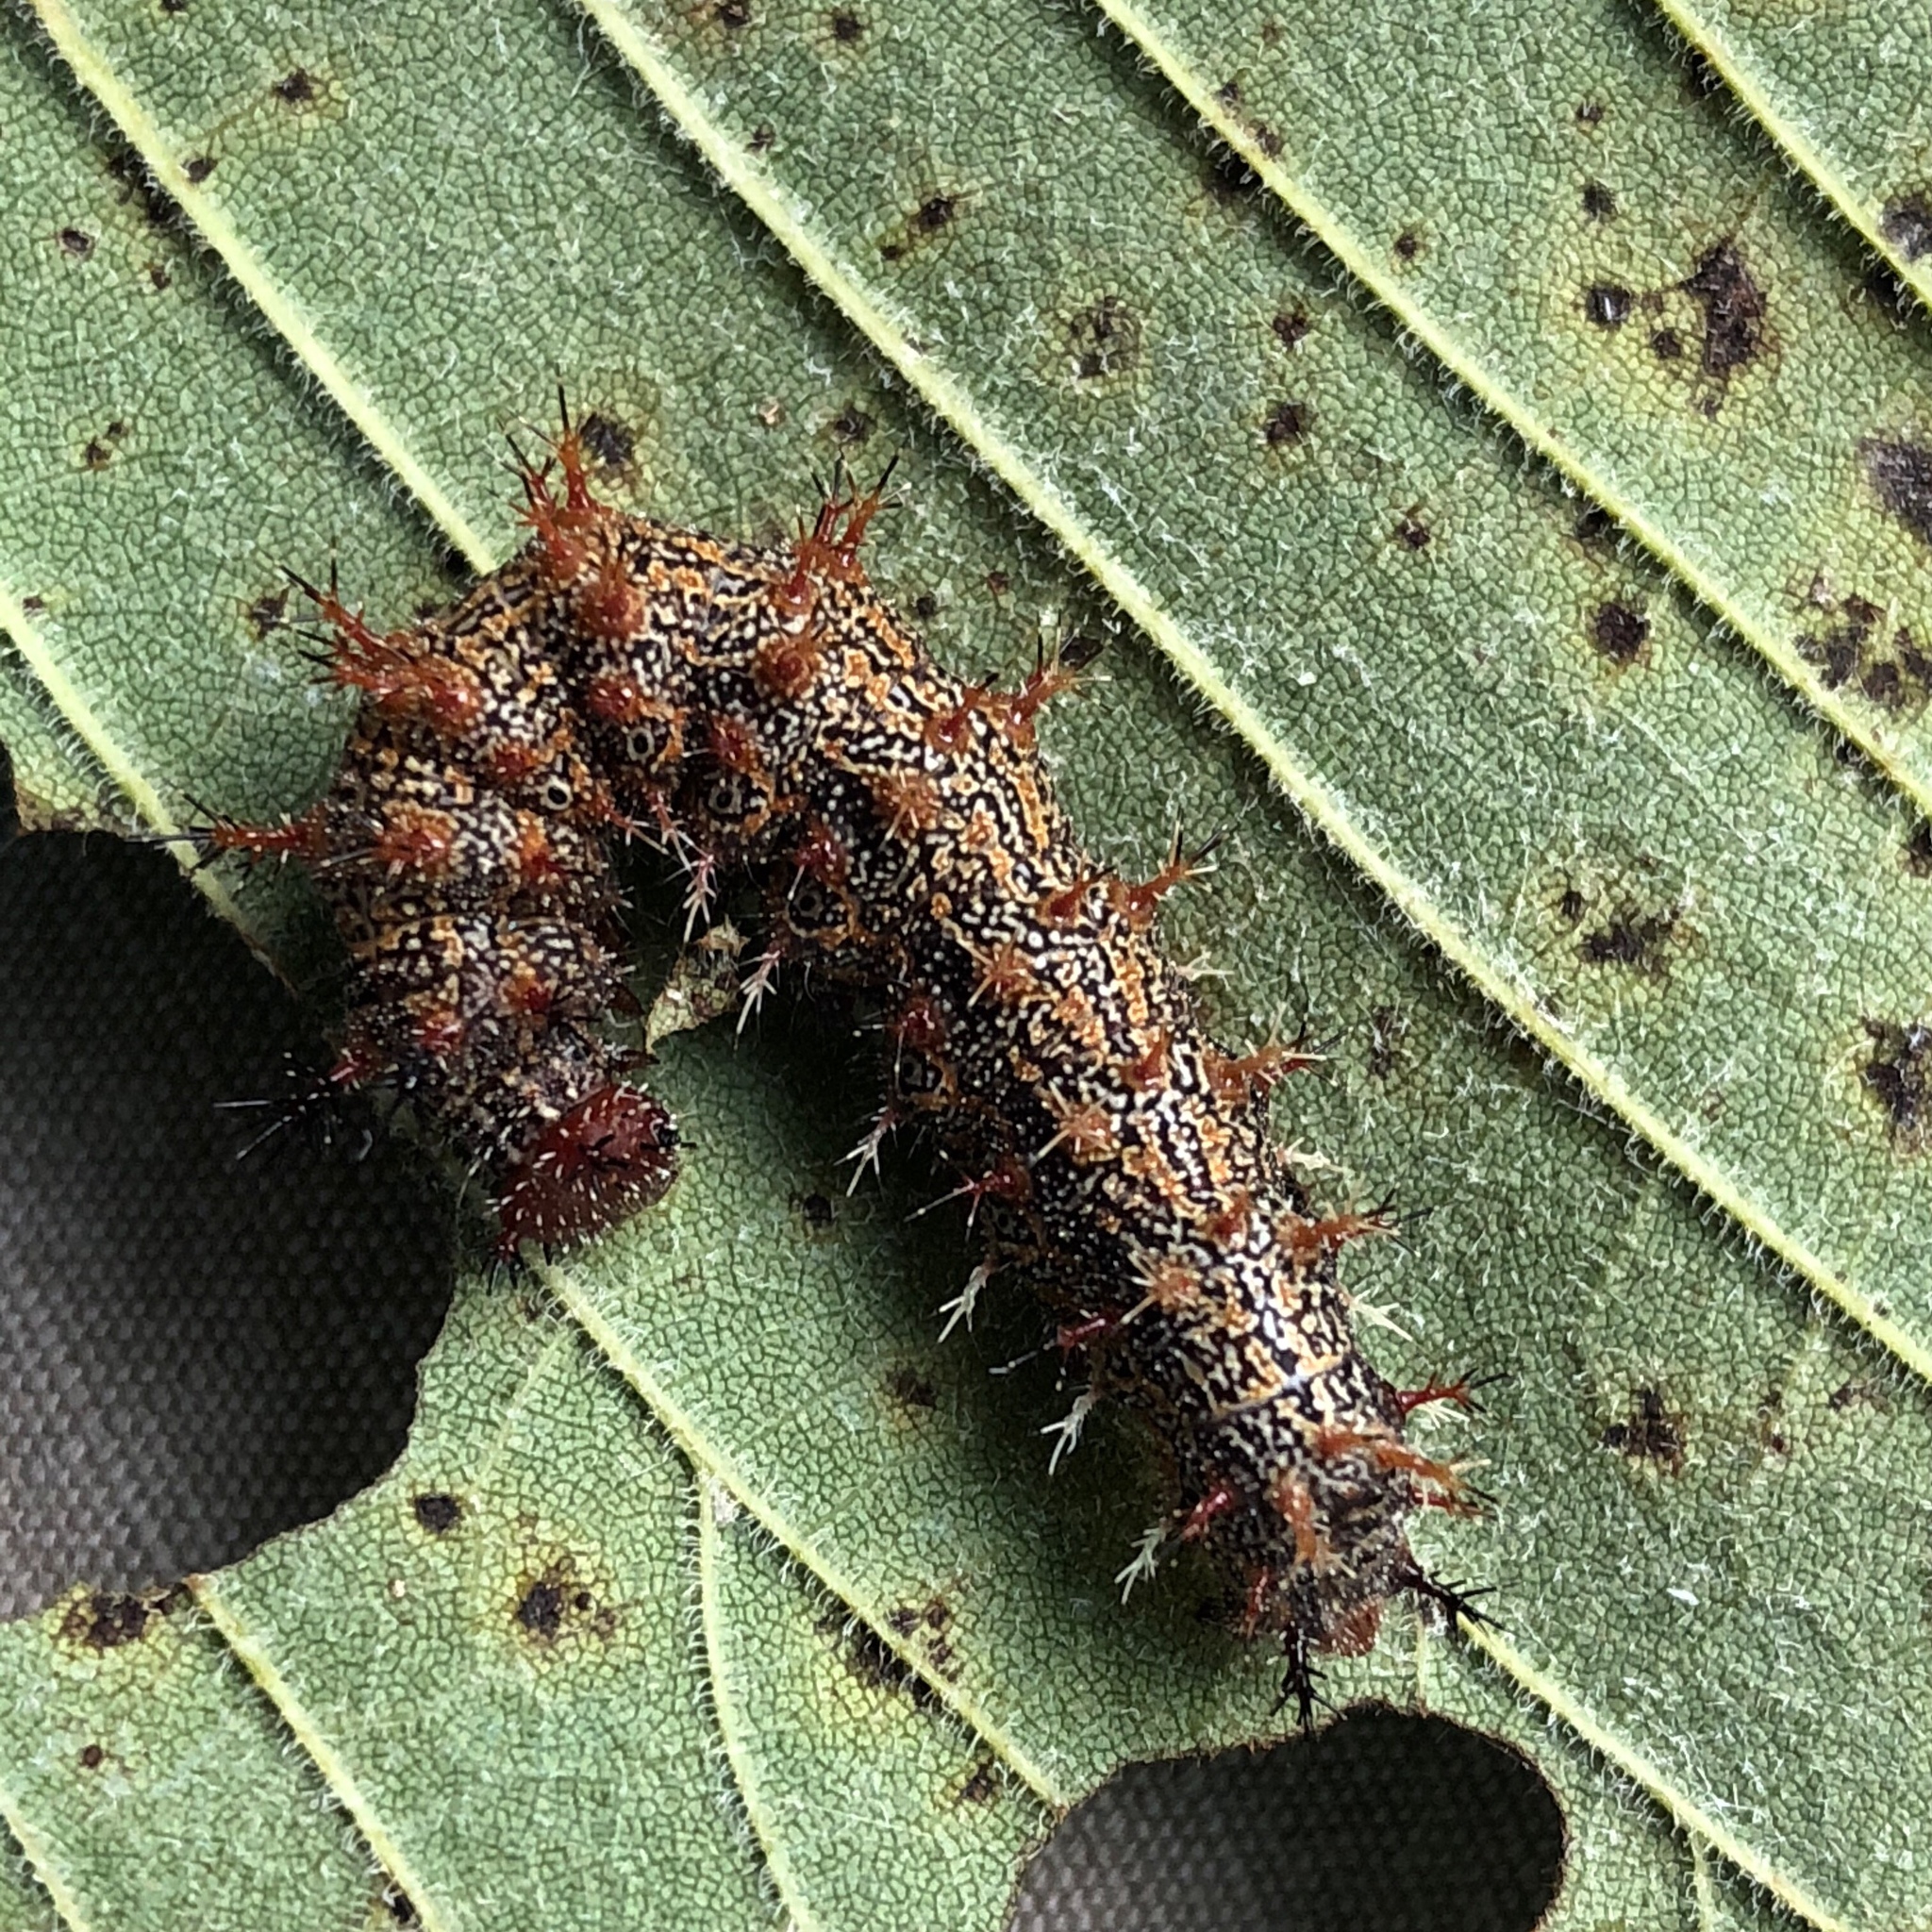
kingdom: Animalia
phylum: Arthropoda
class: Insecta
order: Lepidoptera
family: Nymphalidae
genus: Polygonia
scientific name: Polygonia interrogationis
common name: Question mark
